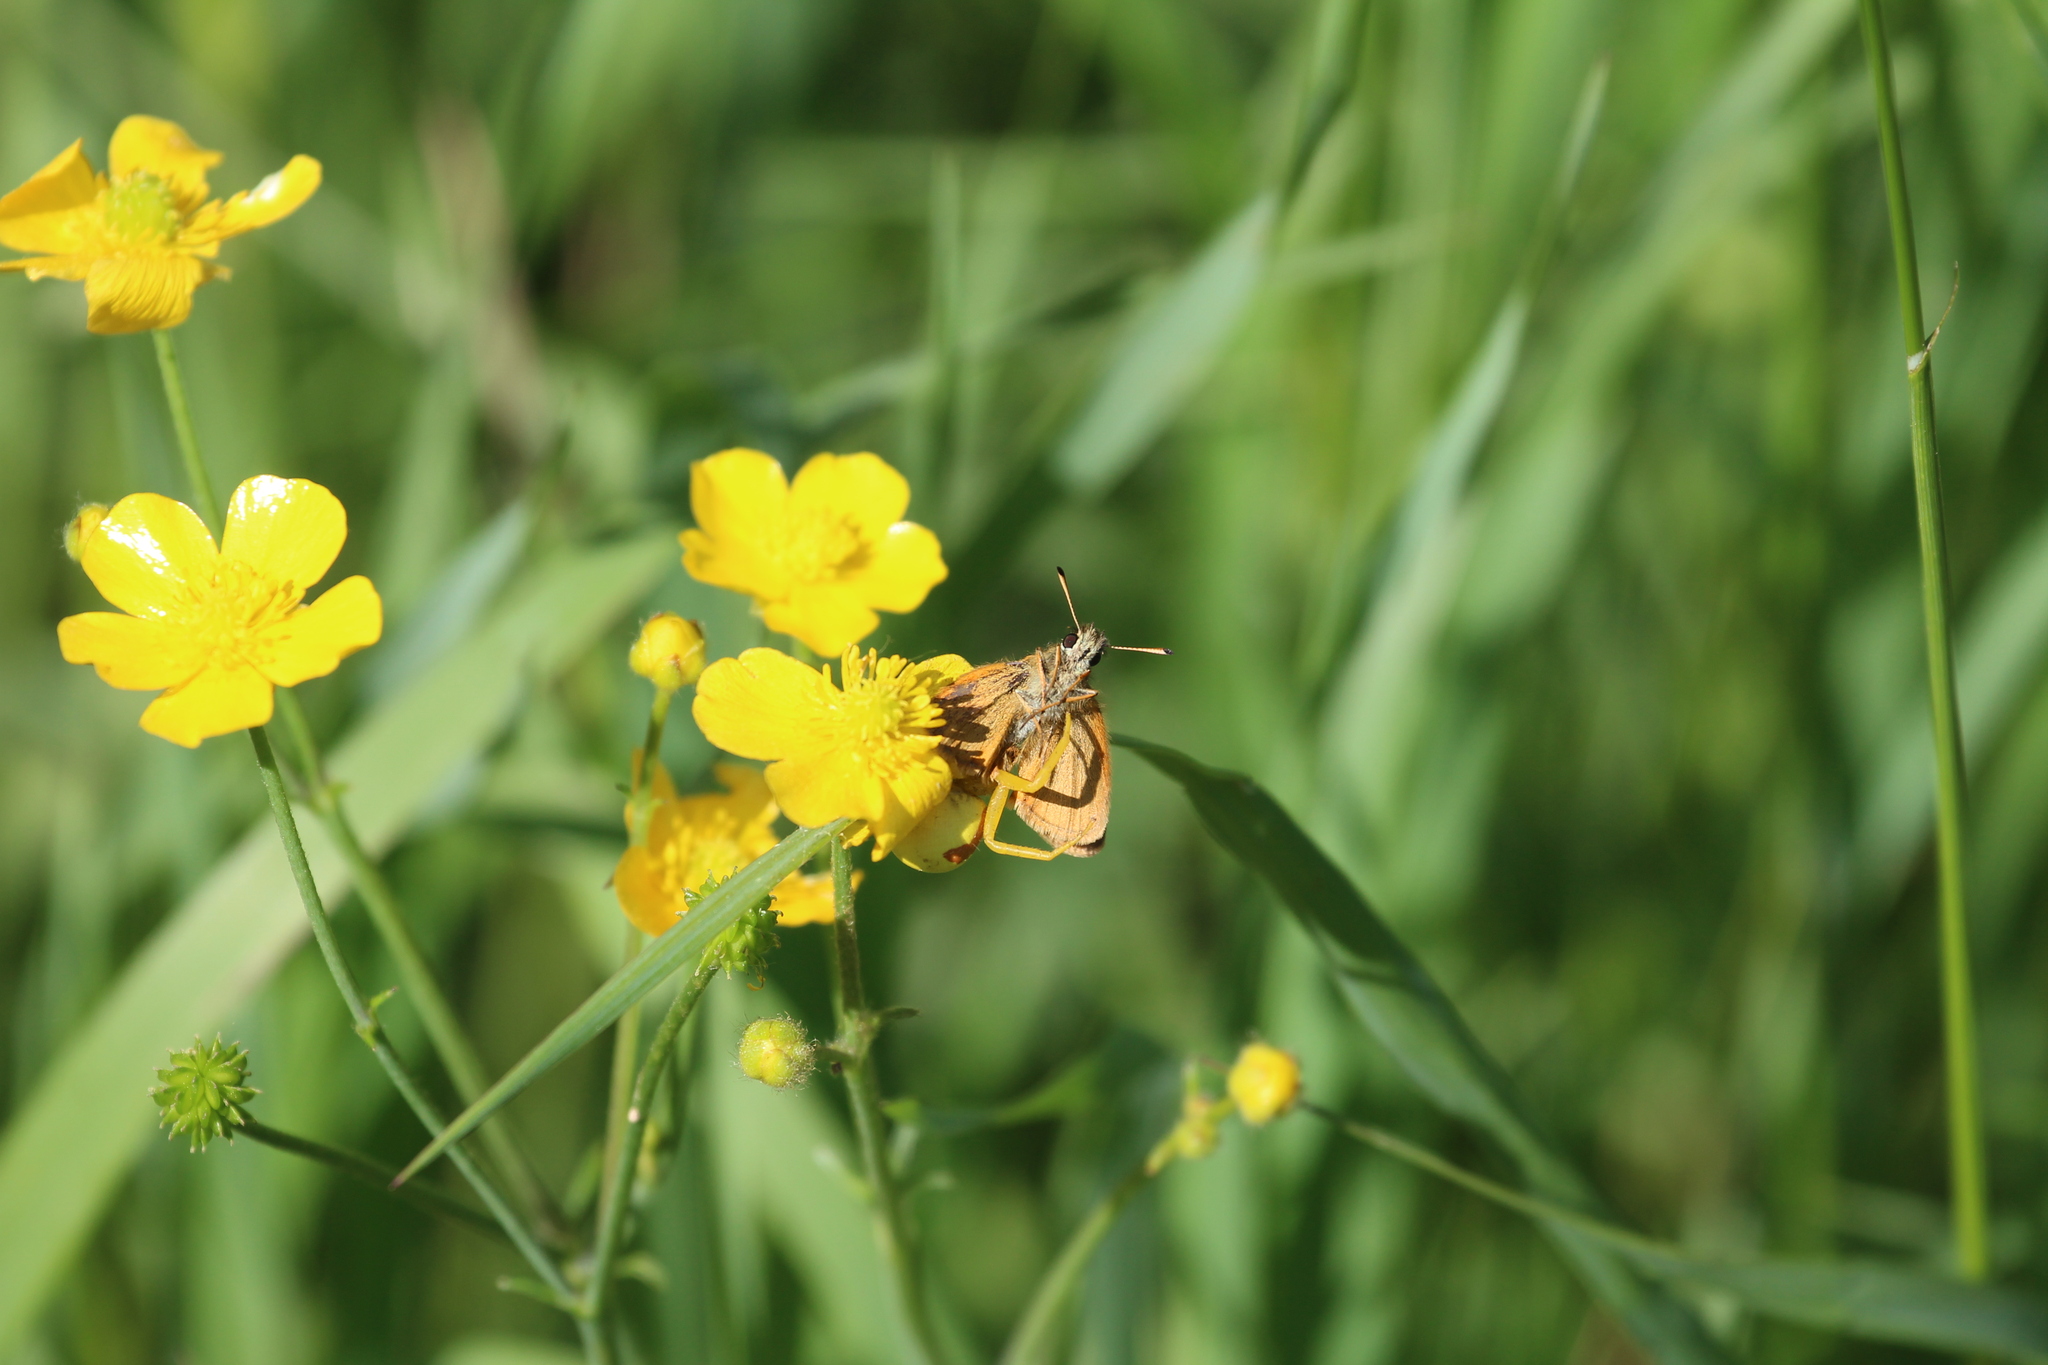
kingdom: Animalia
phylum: Arthropoda
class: Insecta
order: Lepidoptera
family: Hesperiidae
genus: Thymelicus
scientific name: Thymelicus lineola
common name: Essex skipper
